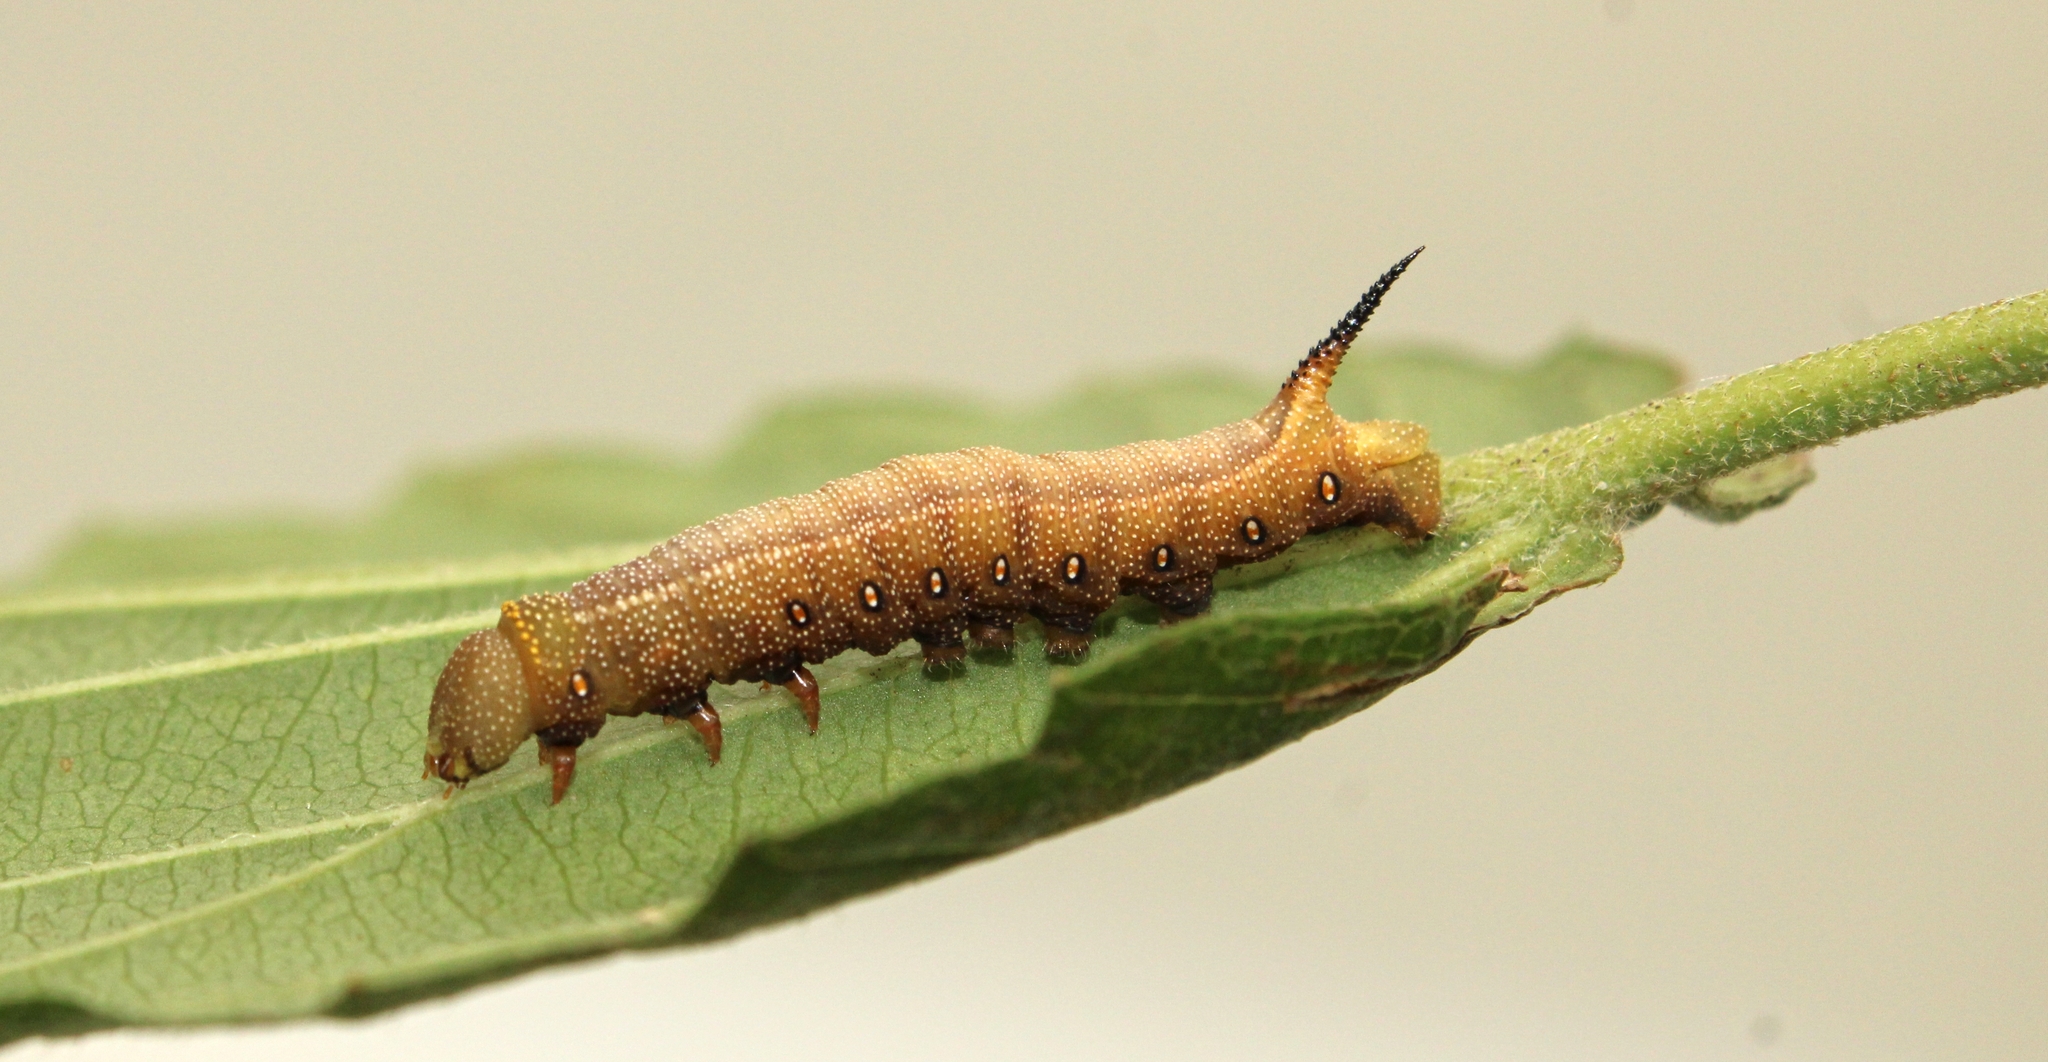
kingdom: Animalia
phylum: Arthropoda
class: Insecta
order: Lepidoptera
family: Sphingidae
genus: Hemaris
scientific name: Hemaris diffinis
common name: Bumblebee moth
